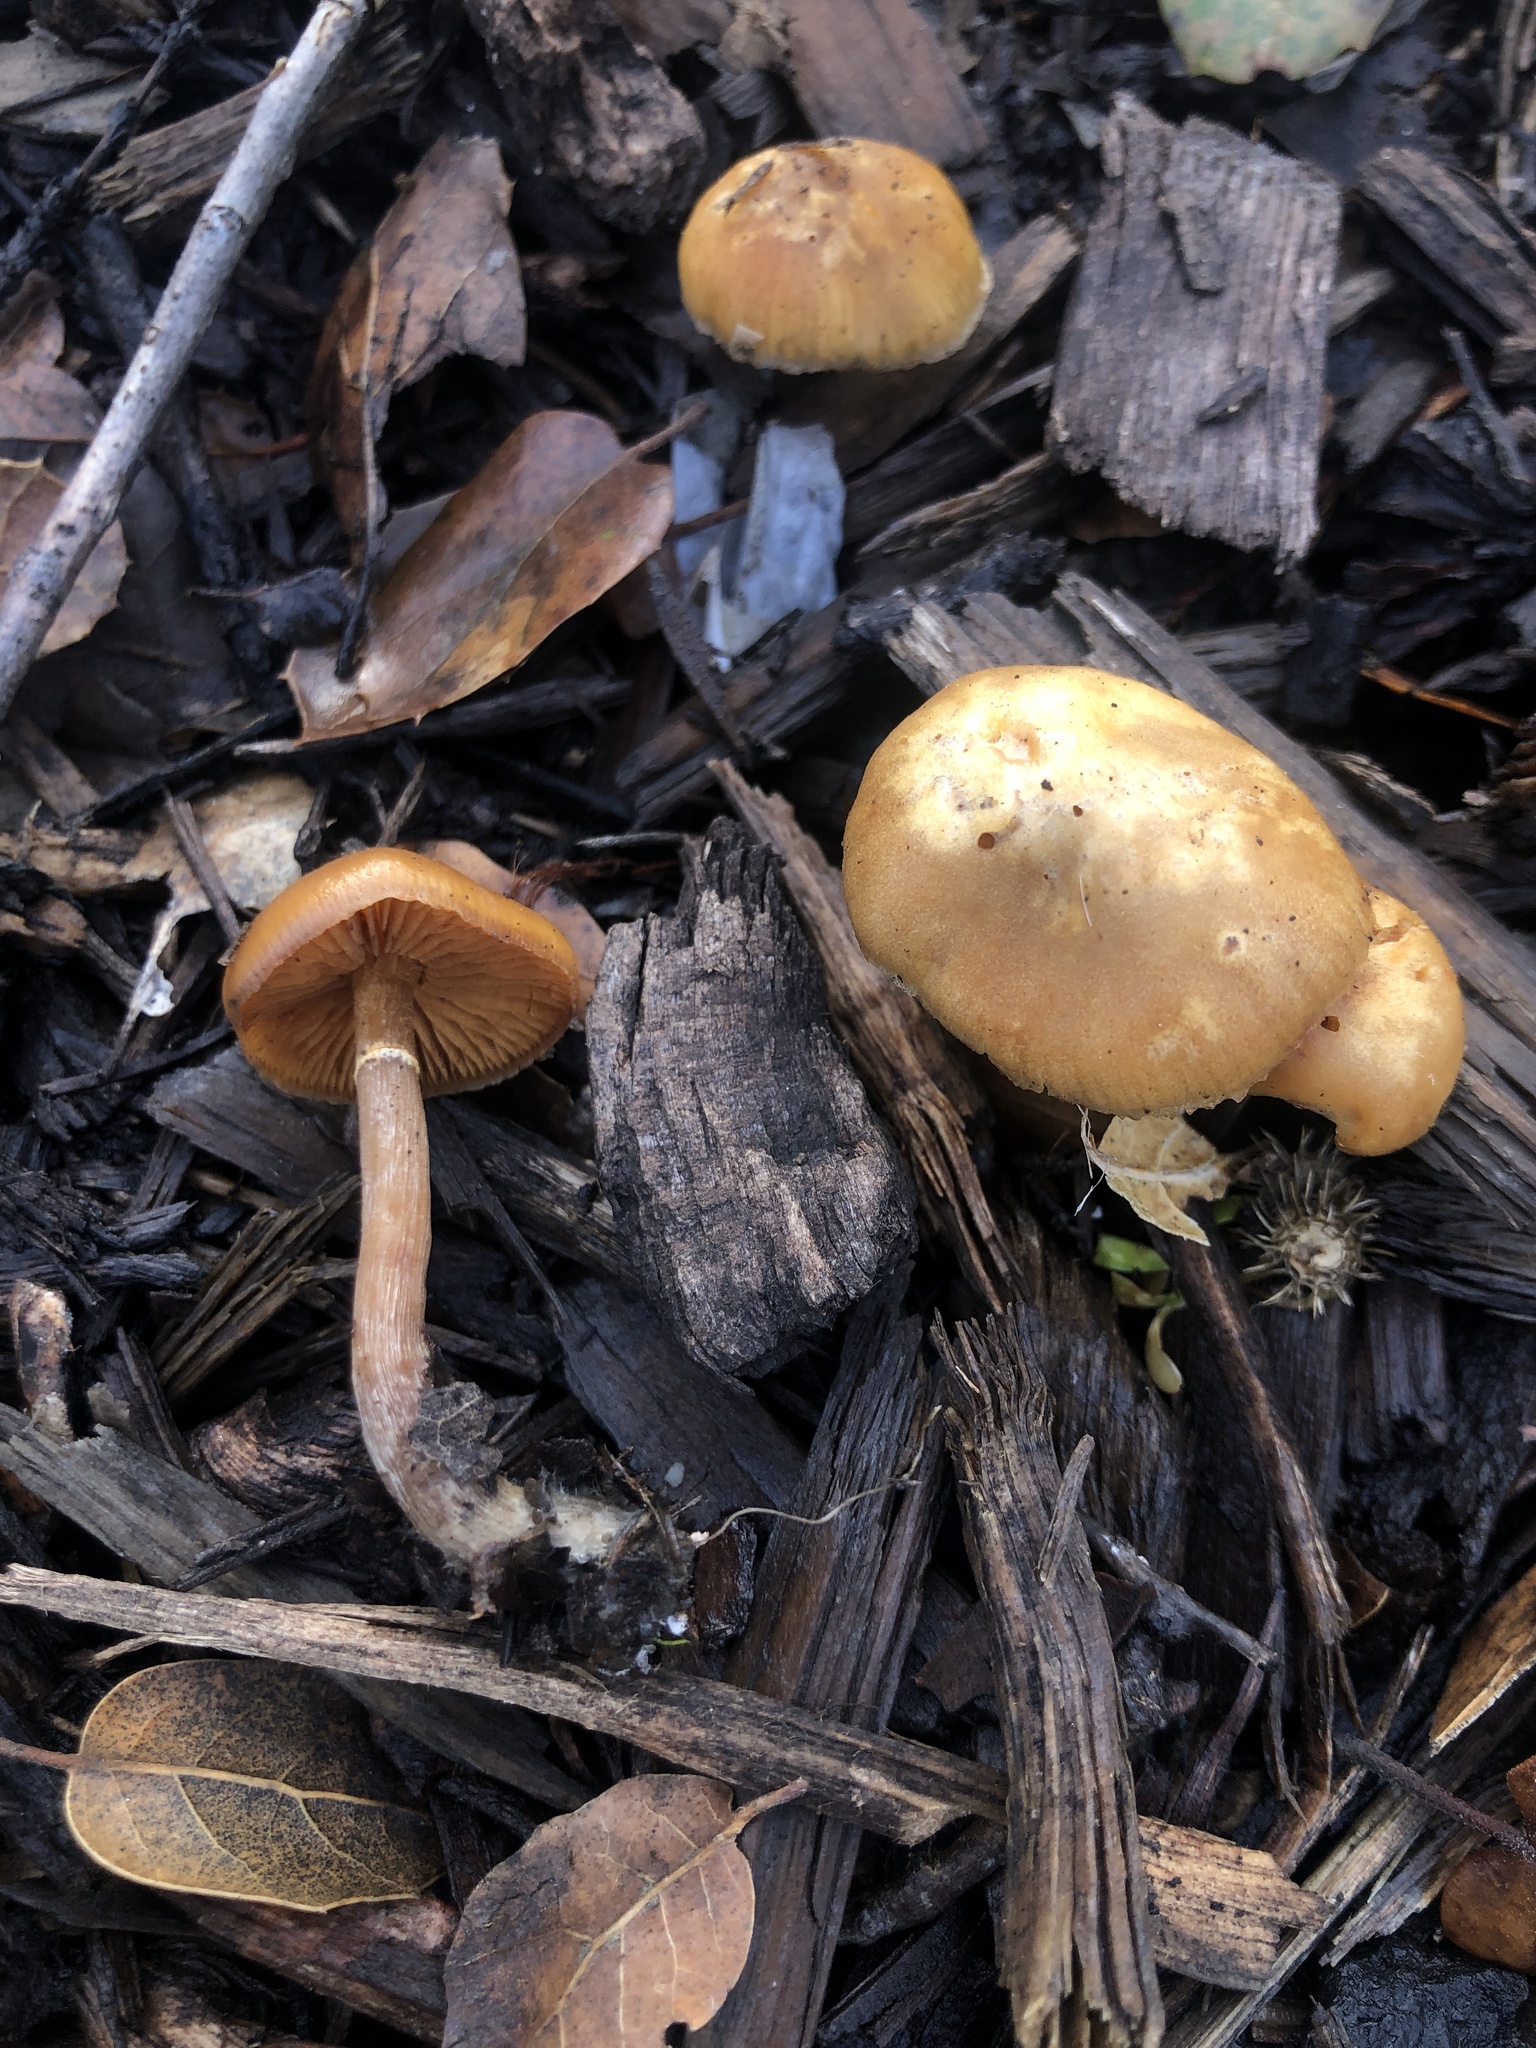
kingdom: Fungi
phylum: Basidiomycota
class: Agaricomycetes
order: Agaricales
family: Hymenogastraceae
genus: Galerina
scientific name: Galerina marginata
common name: Funeral bell
